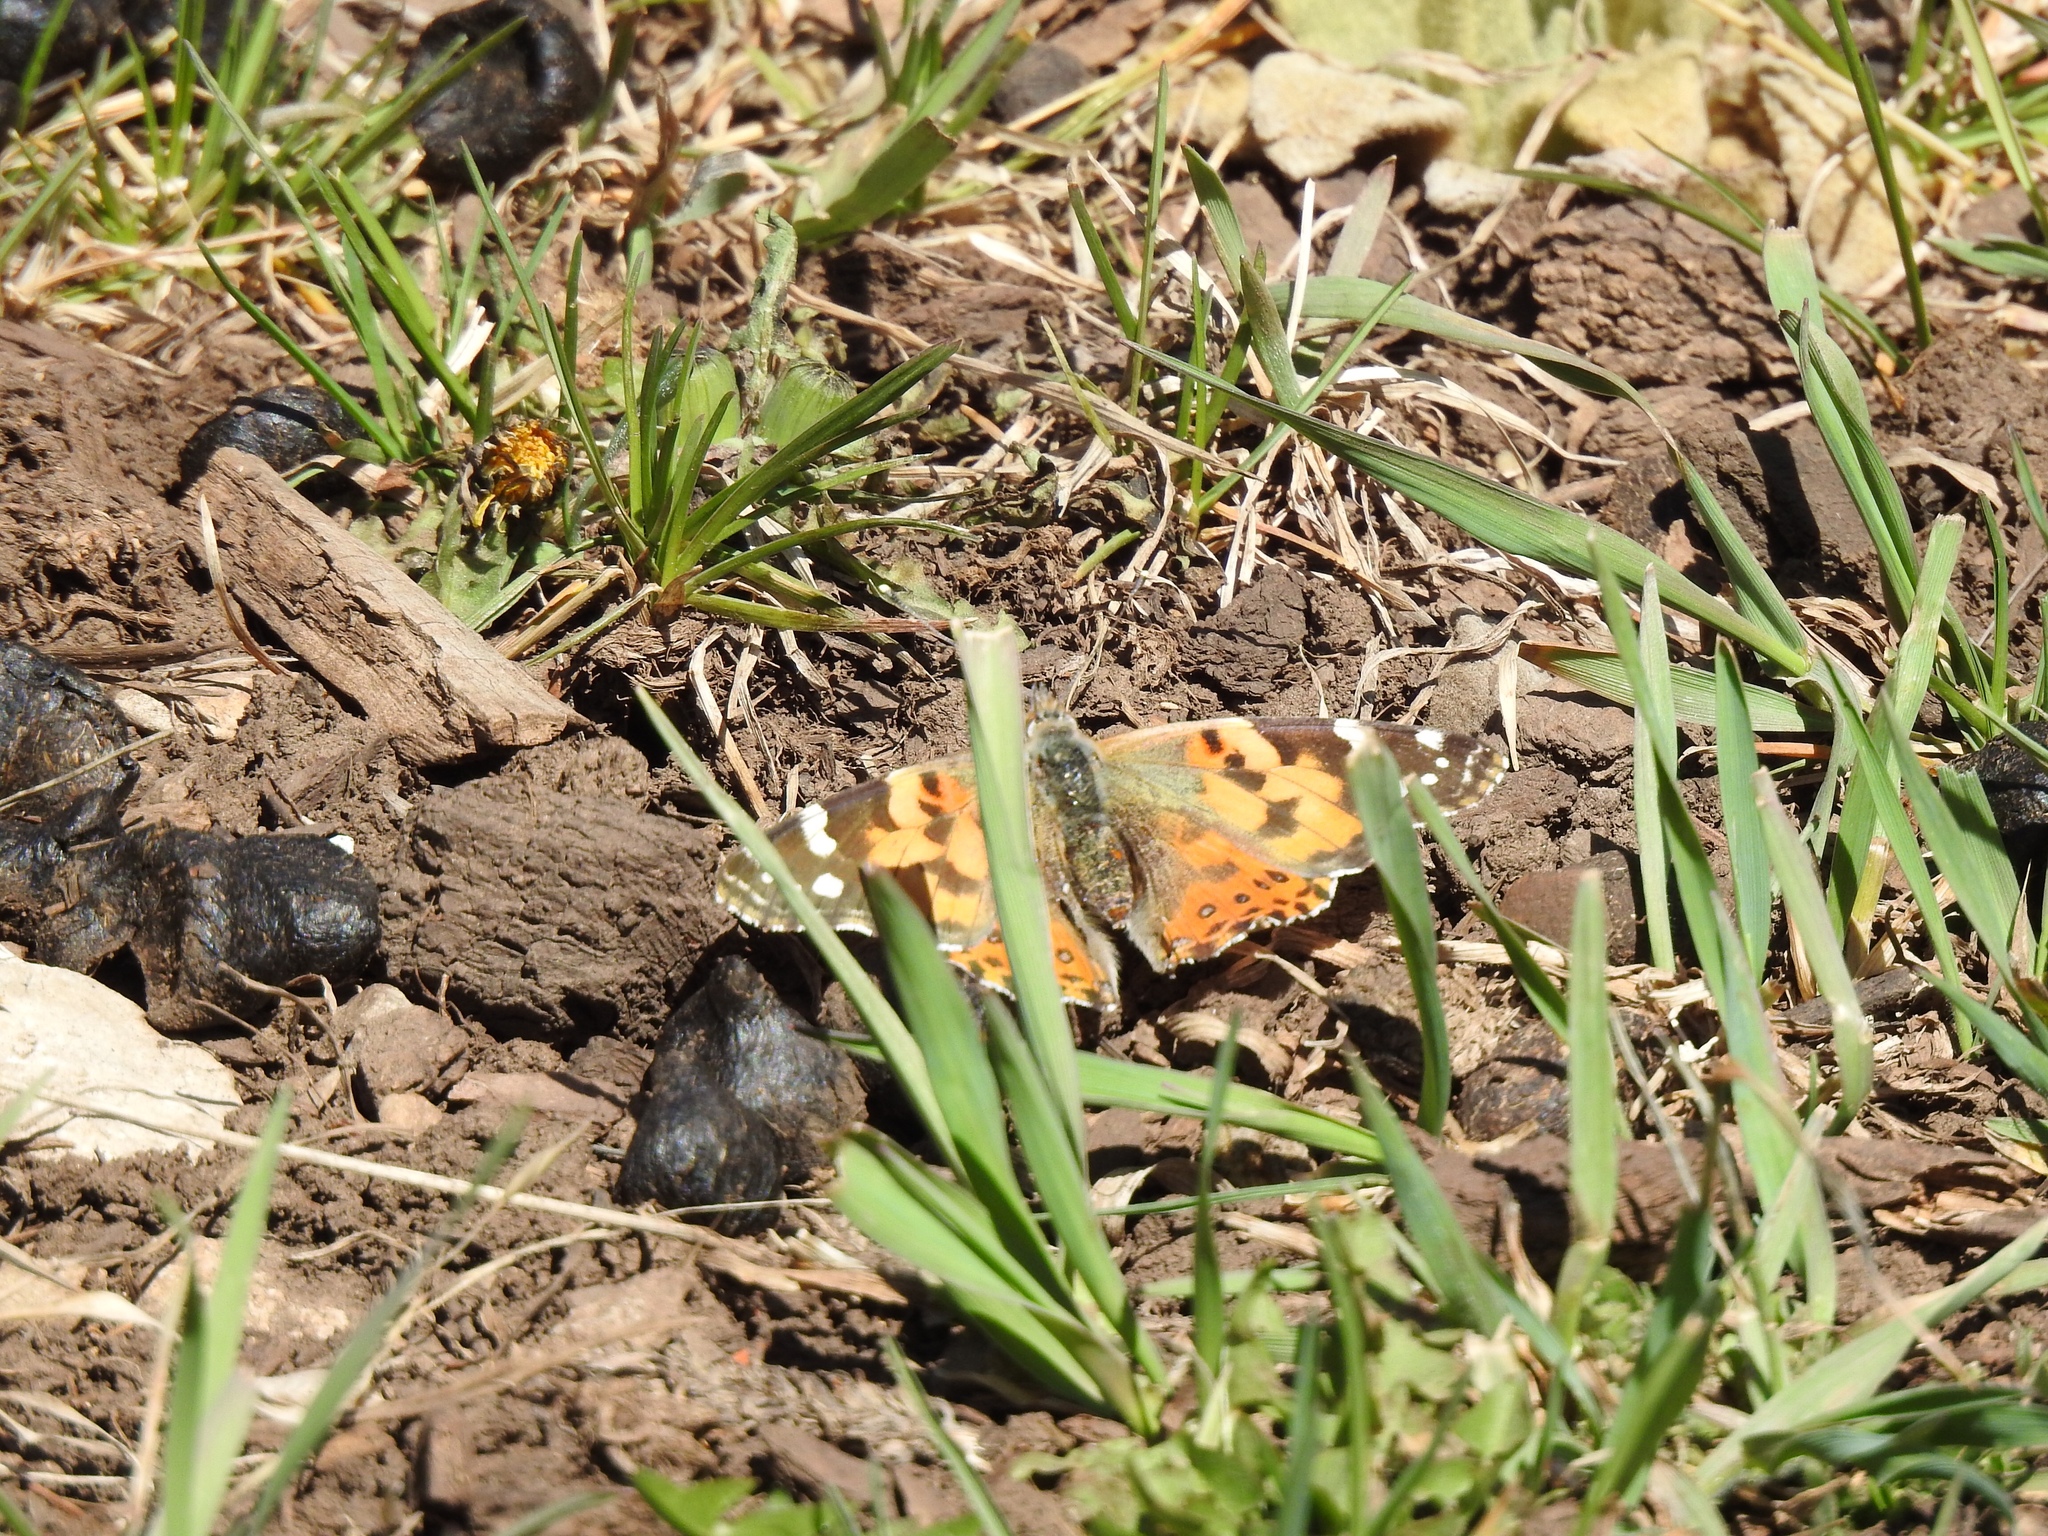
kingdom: Animalia
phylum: Arthropoda
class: Insecta
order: Lepidoptera
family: Nymphalidae
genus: Vanessa
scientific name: Vanessa cardui
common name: Painted lady
